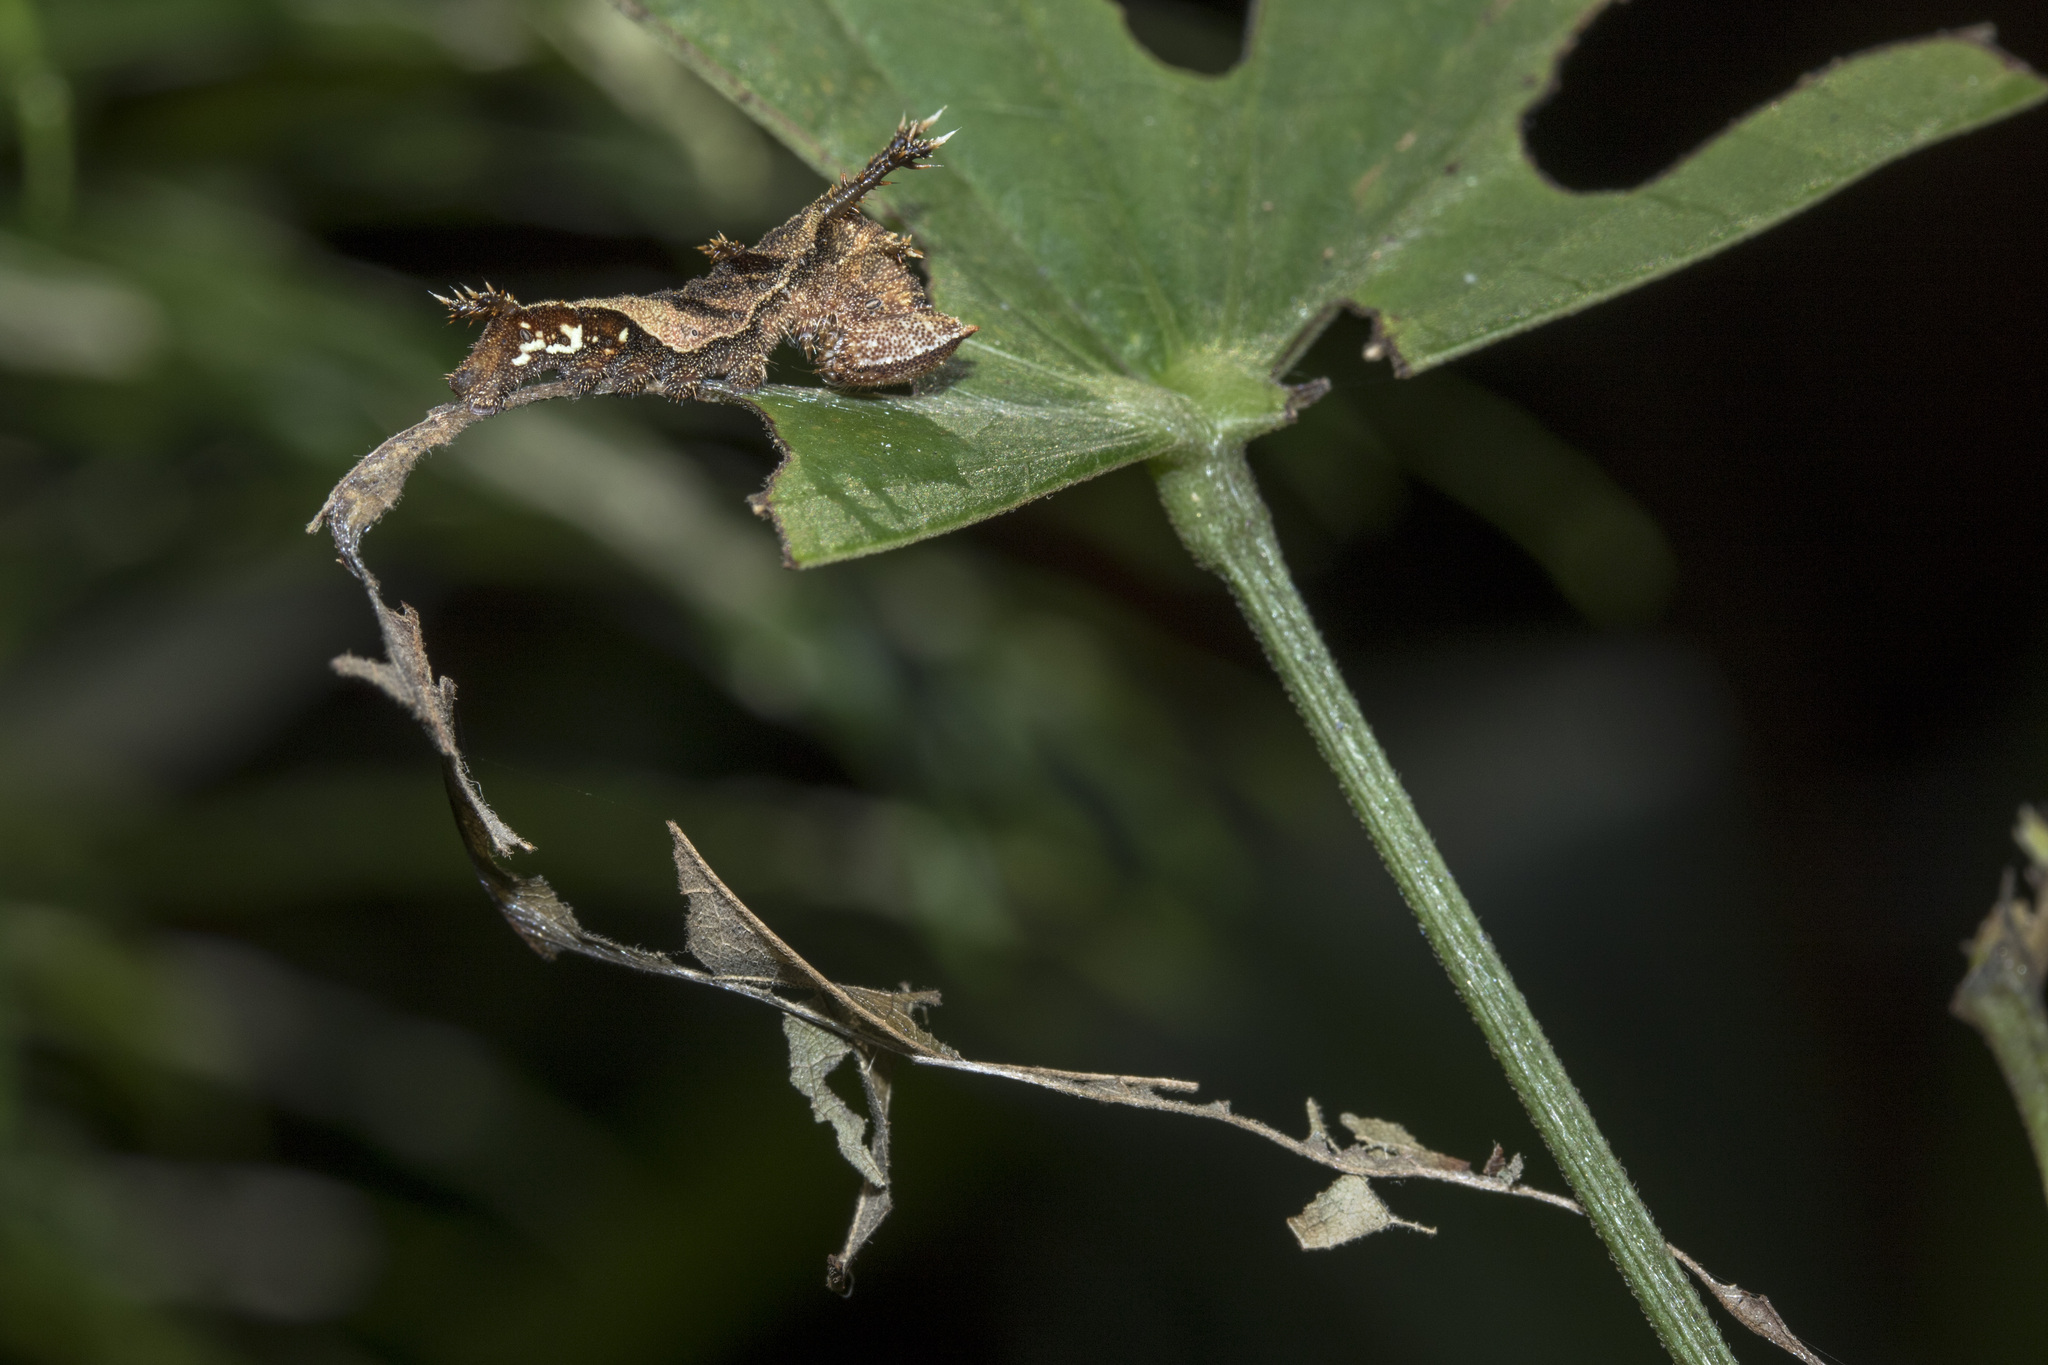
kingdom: Animalia
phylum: Arthropoda
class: Insecta
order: Lepidoptera
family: Nymphalidae
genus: Neptis
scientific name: Neptis hylas
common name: Common sailer
